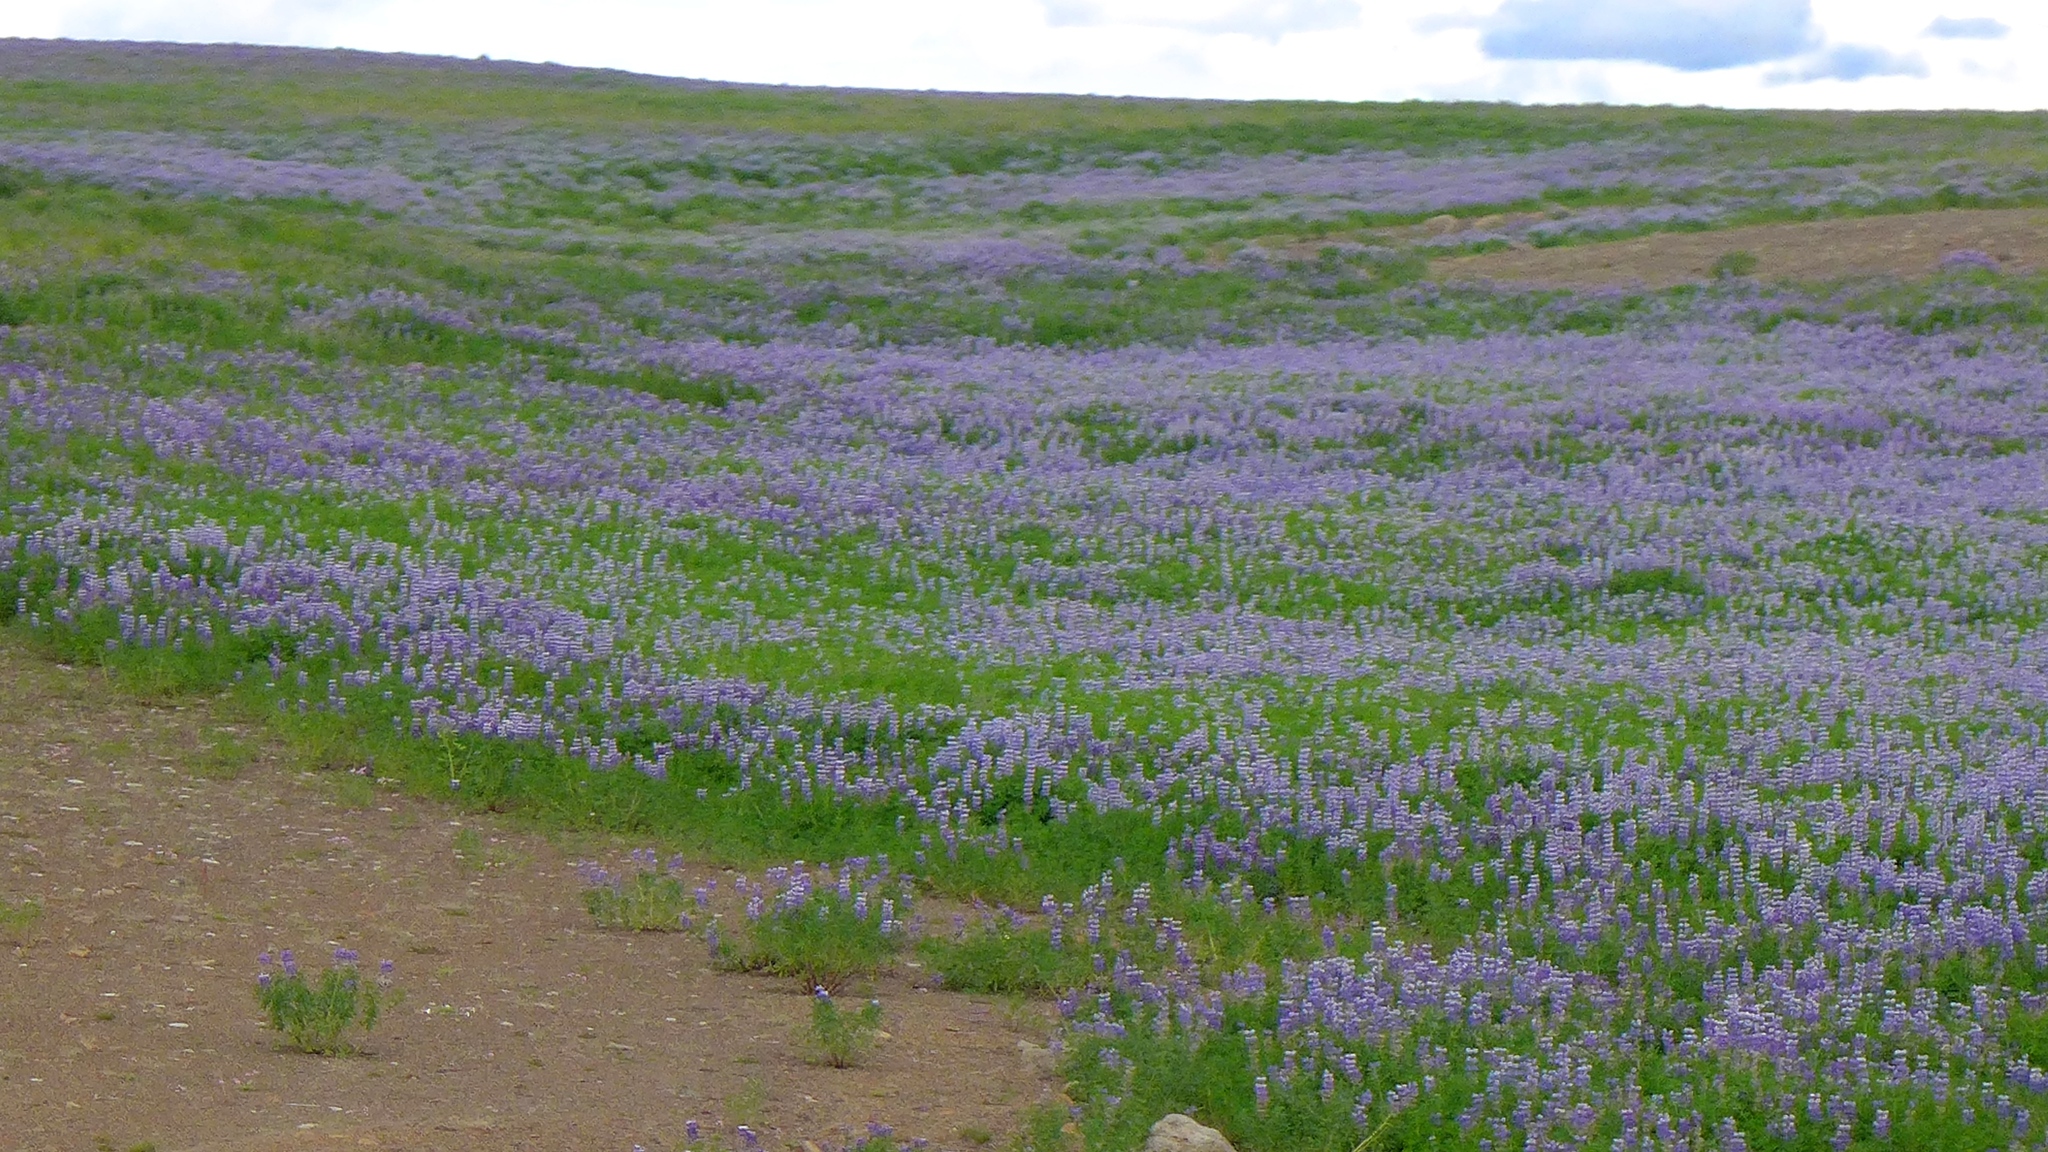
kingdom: Plantae
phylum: Tracheophyta
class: Magnoliopsida
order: Fabales
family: Fabaceae
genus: Lupinus
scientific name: Lupinus nootkatensis
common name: Nootka lupine
